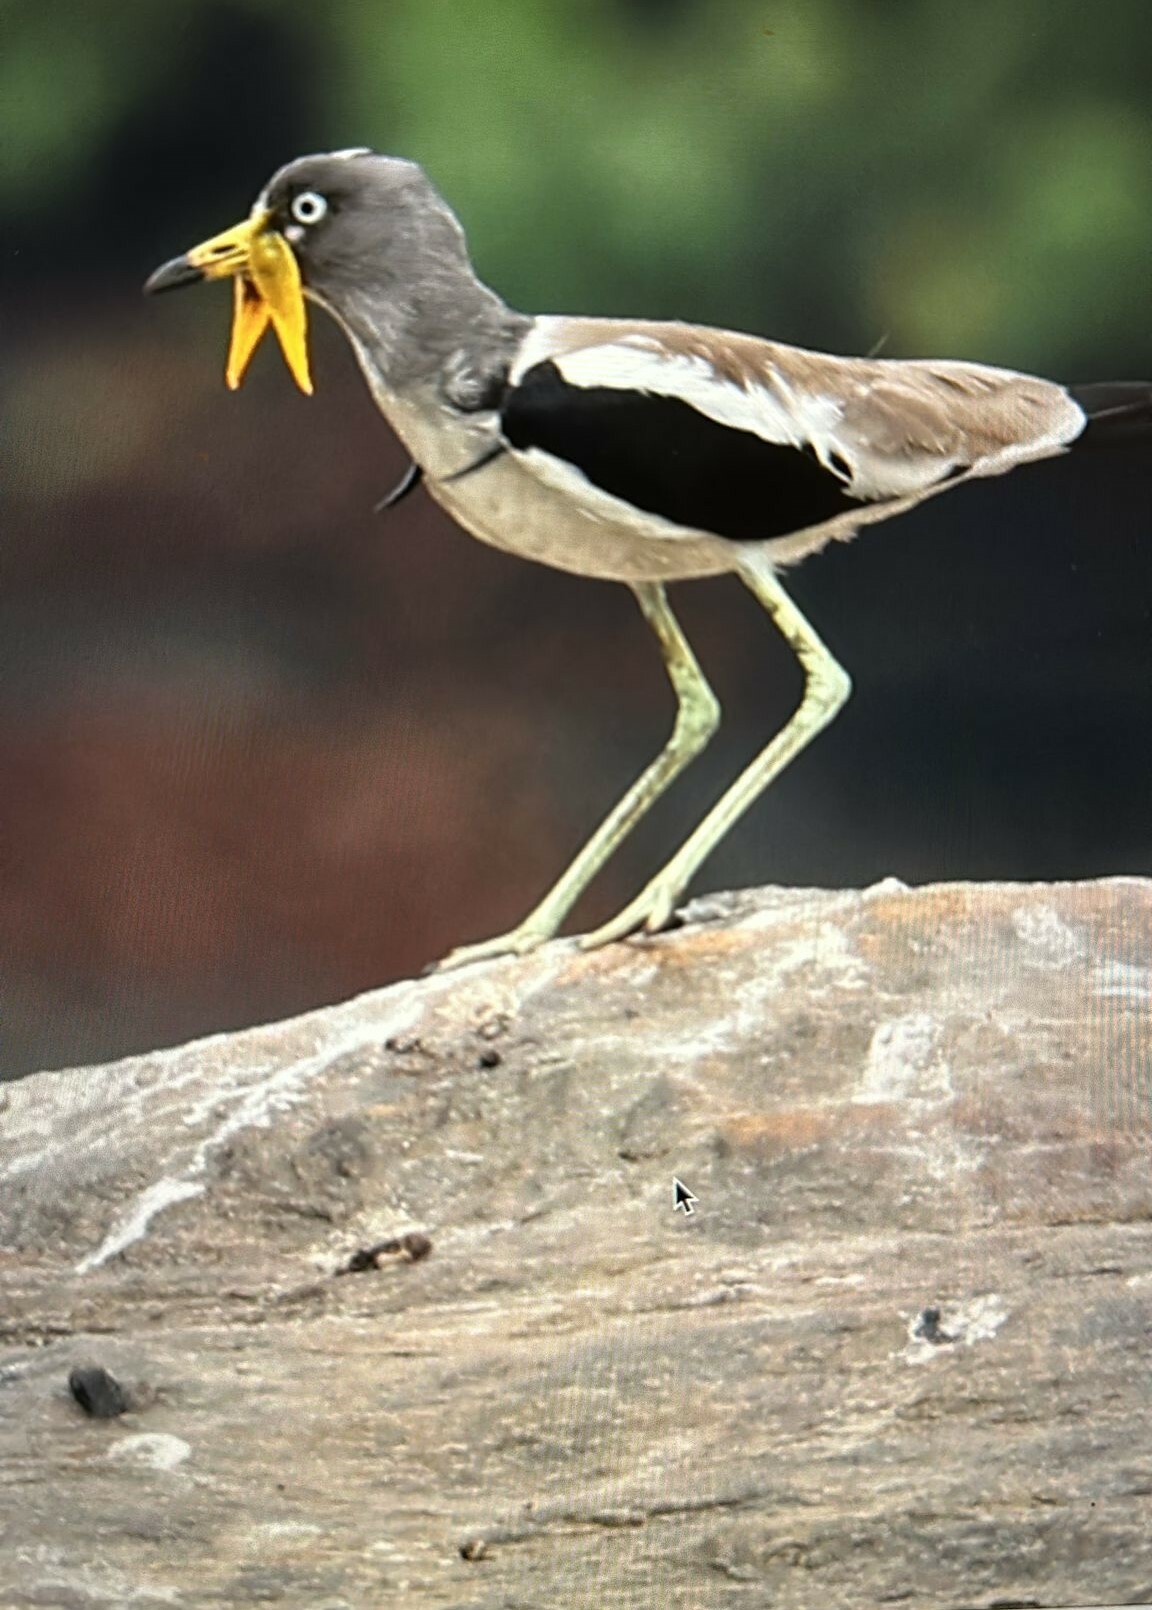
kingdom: Animalia
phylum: Chordata
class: Aves
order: Charadriiformes
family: Charadriidae
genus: Vanellus
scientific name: Vanellus albiceps
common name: White-crowned lapwing
